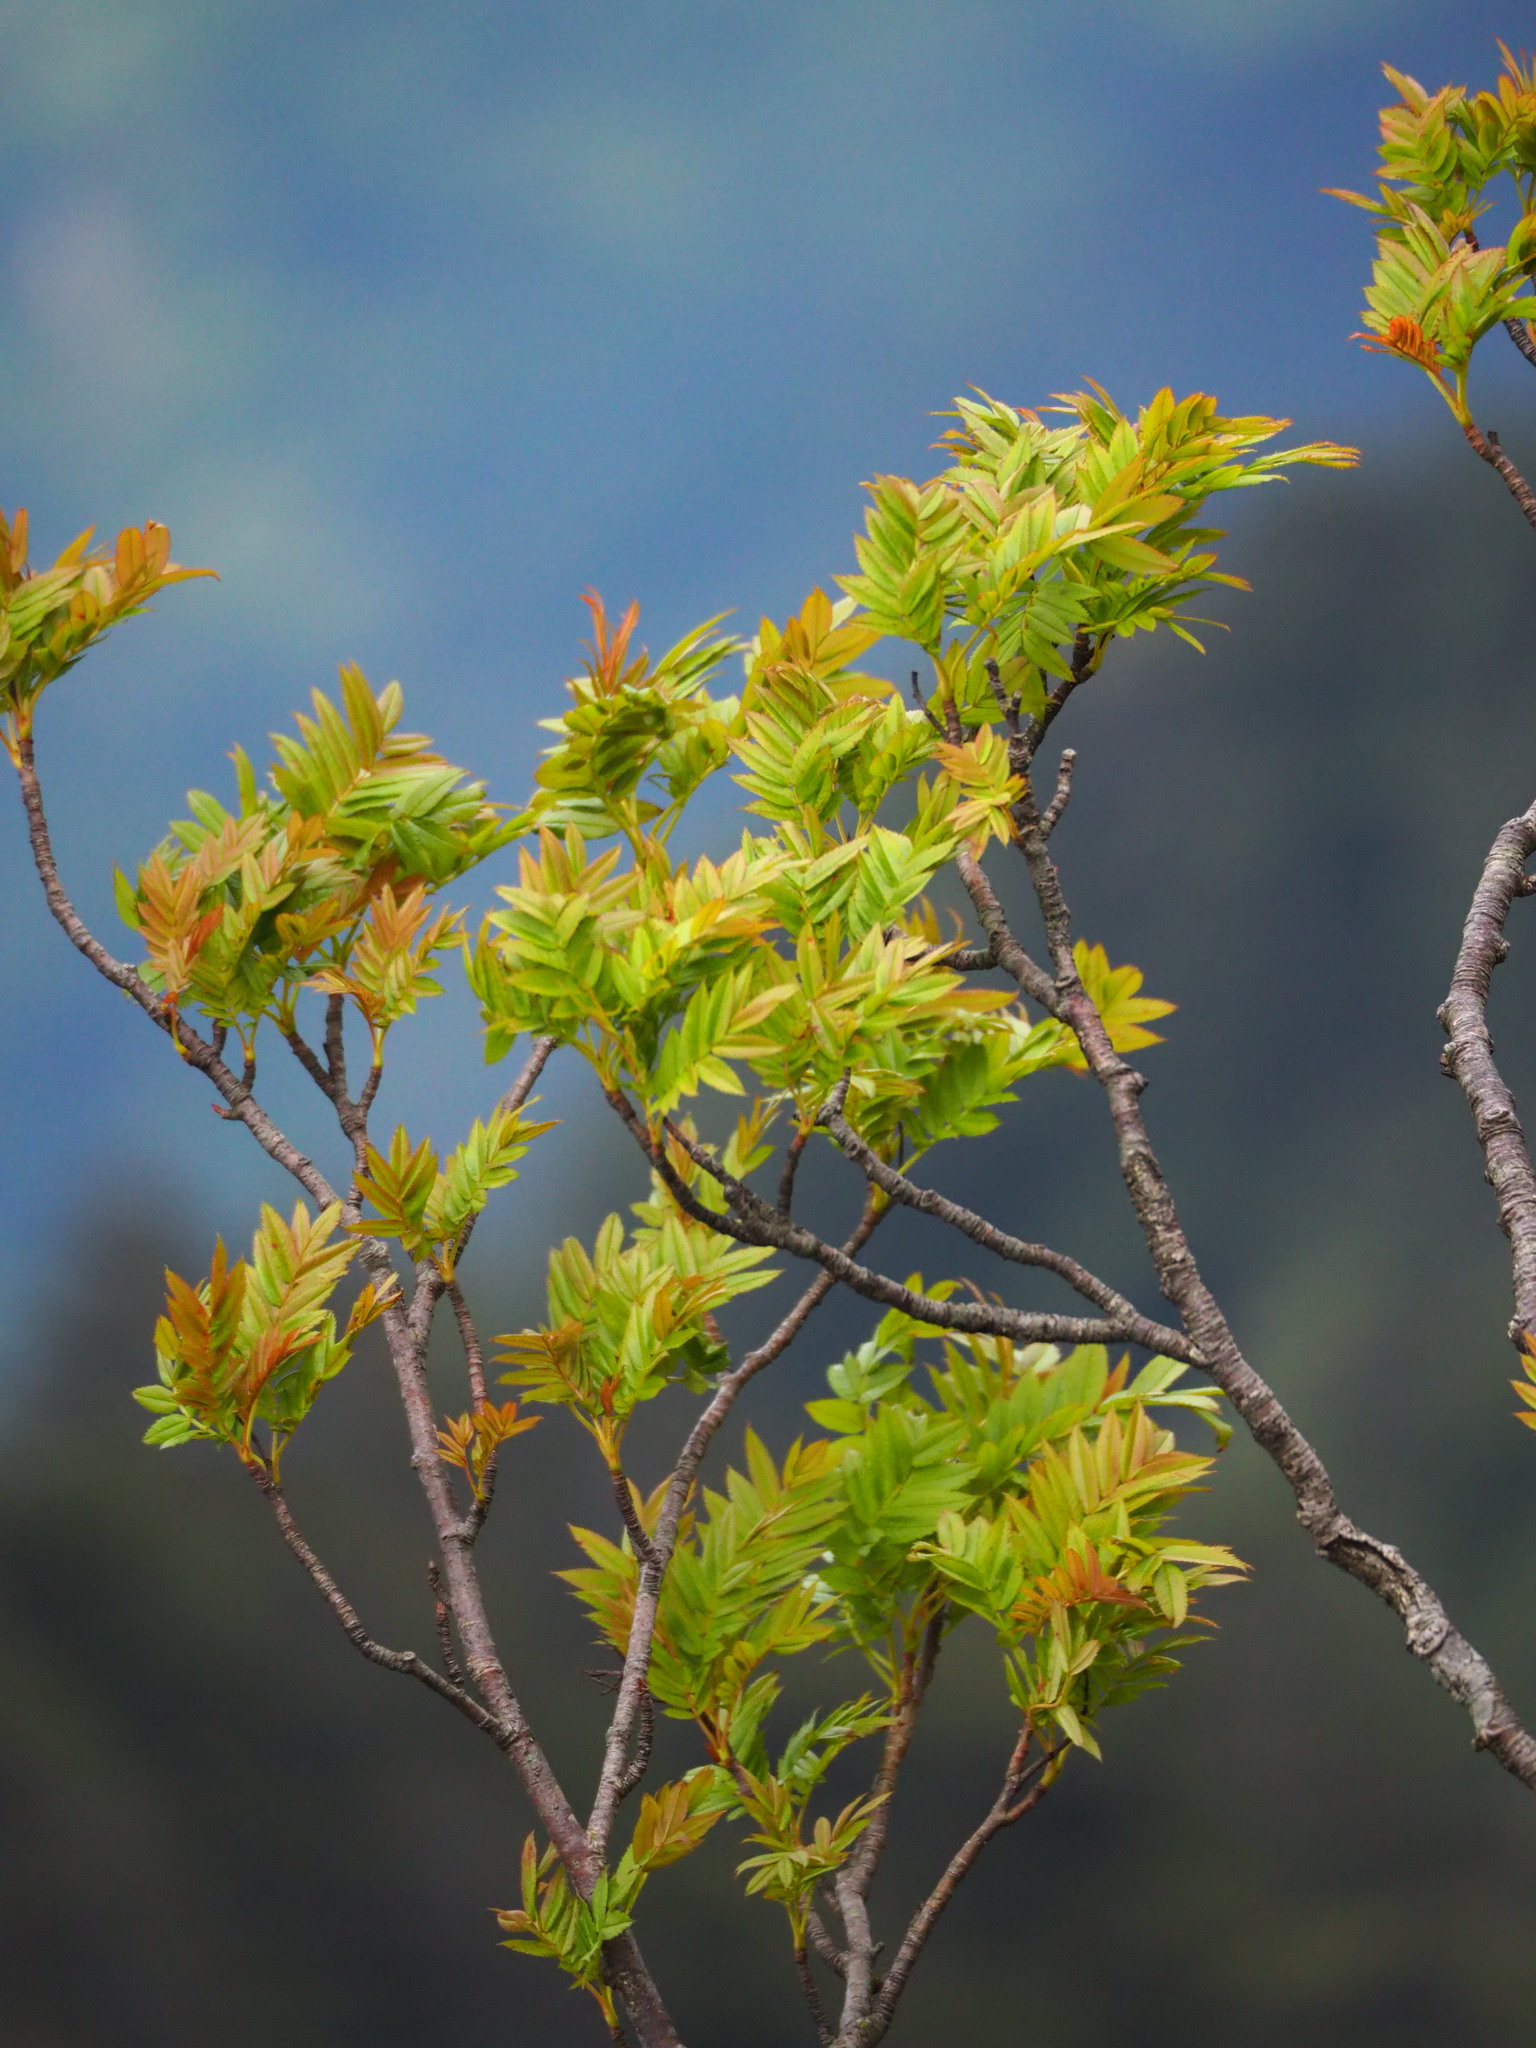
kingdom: Plantae
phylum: Tracheophyta
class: Magnoliopsida
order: Rosales
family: Rosaceae
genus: Sorbus
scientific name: Sorbus randaiensis
